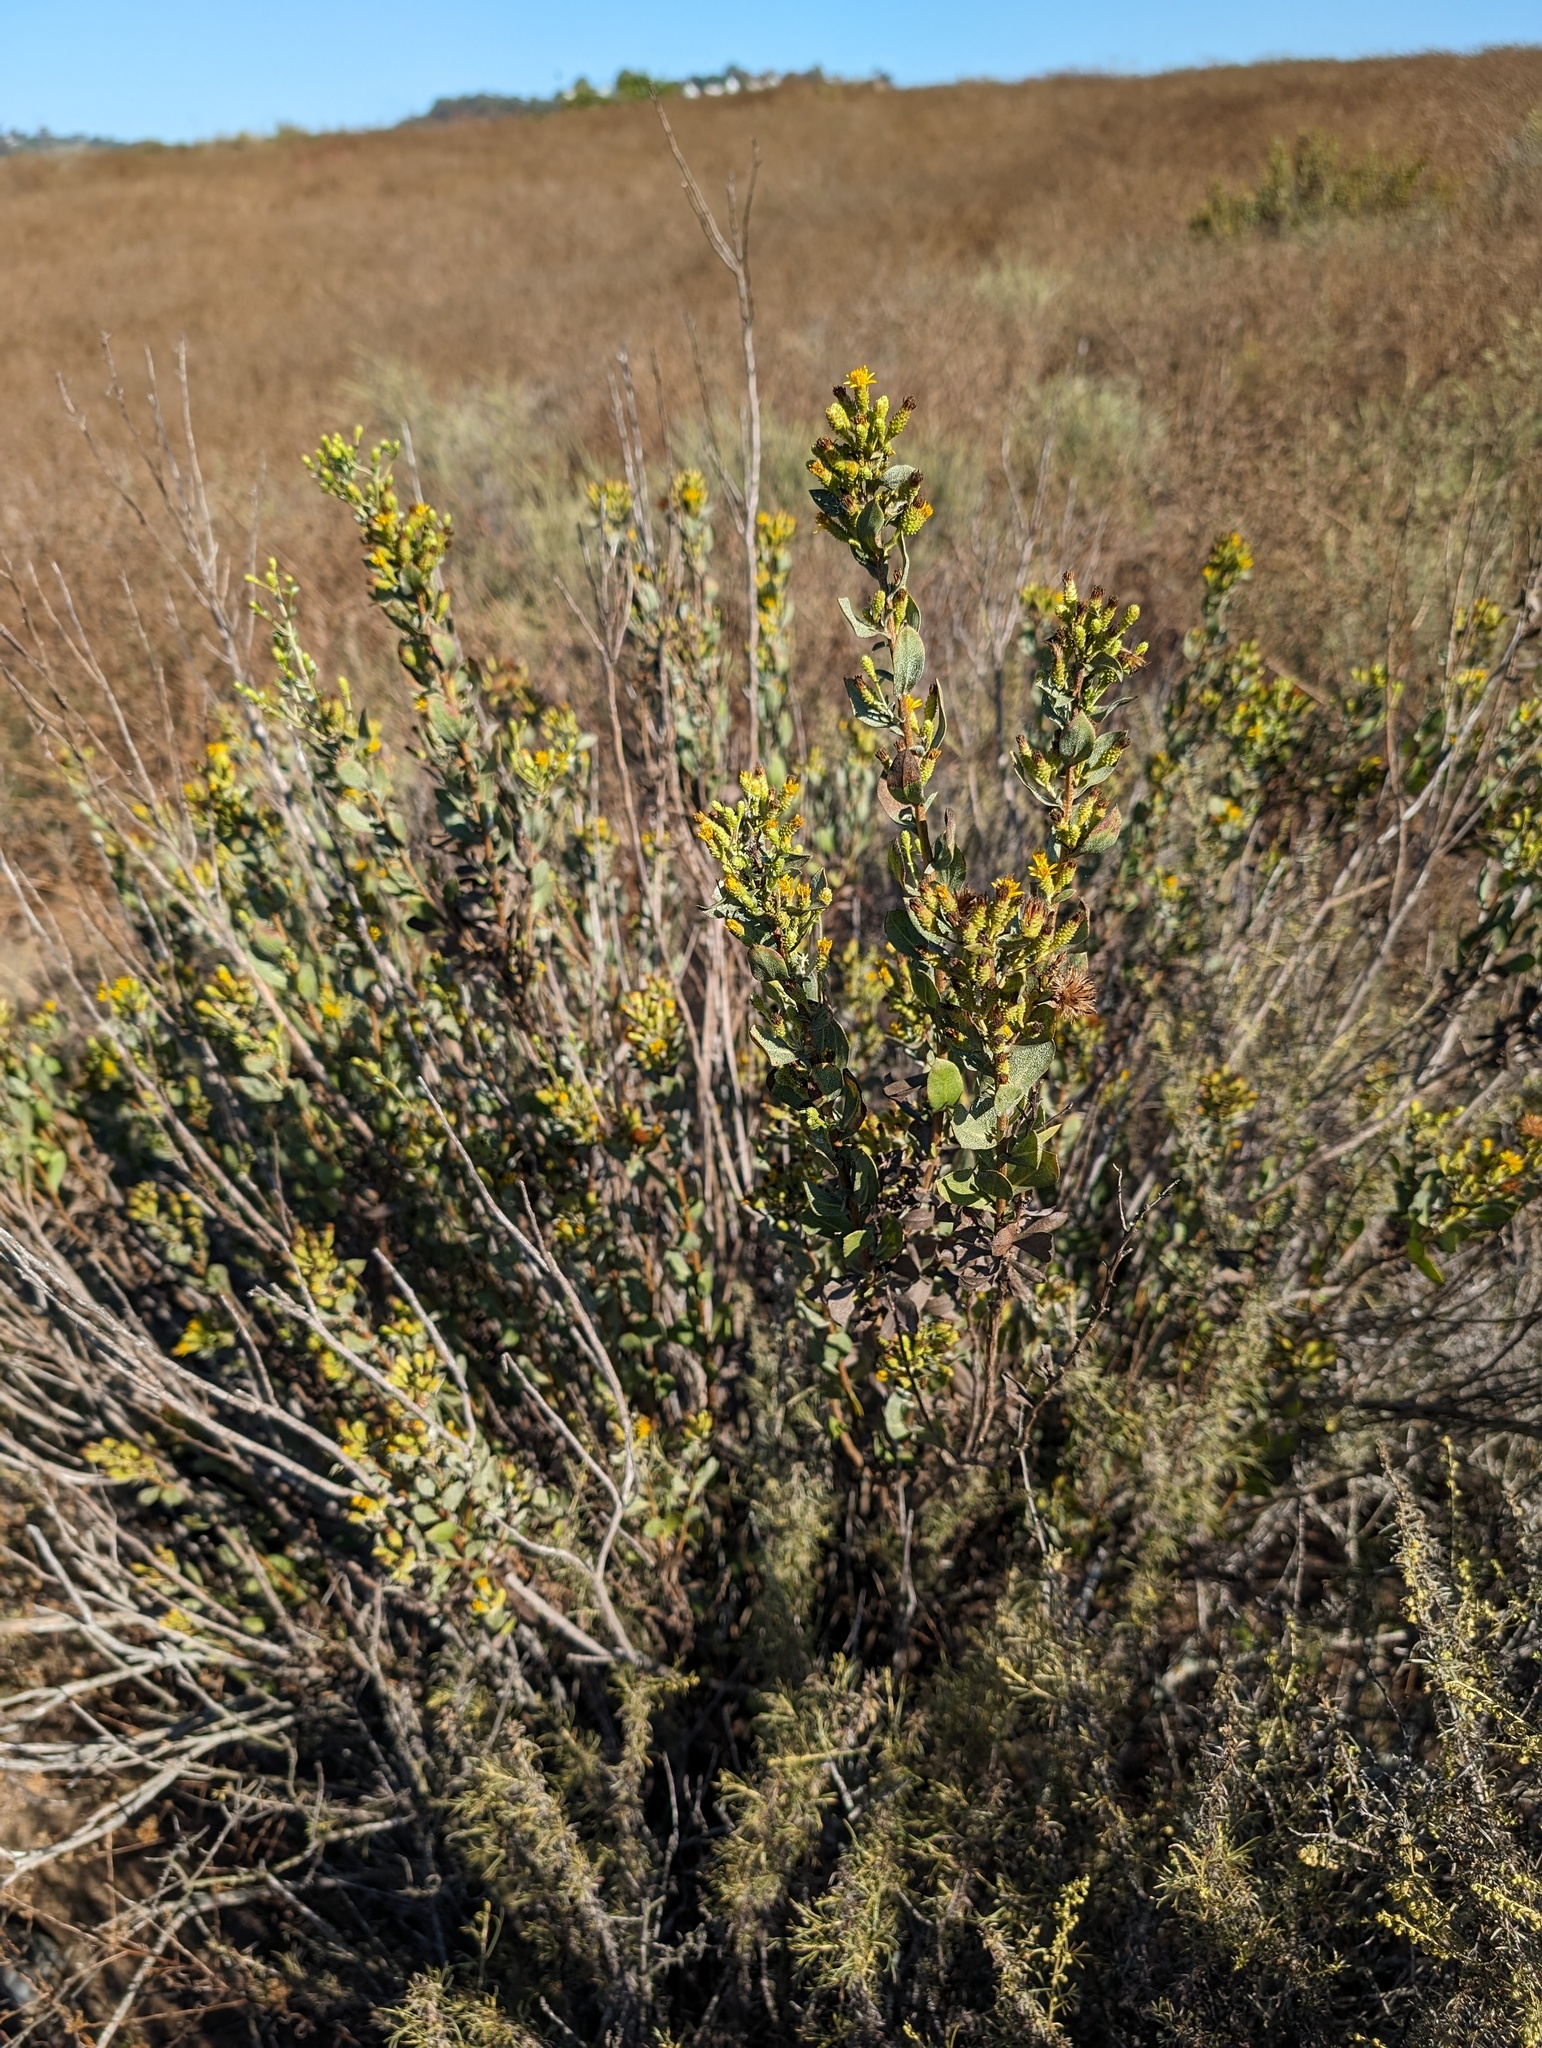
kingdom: Plantae
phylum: Tracheophyta
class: Magnoliopsida
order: Asterales
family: Asteraceae
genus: Hazardia
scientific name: Hazardia orcuttii
